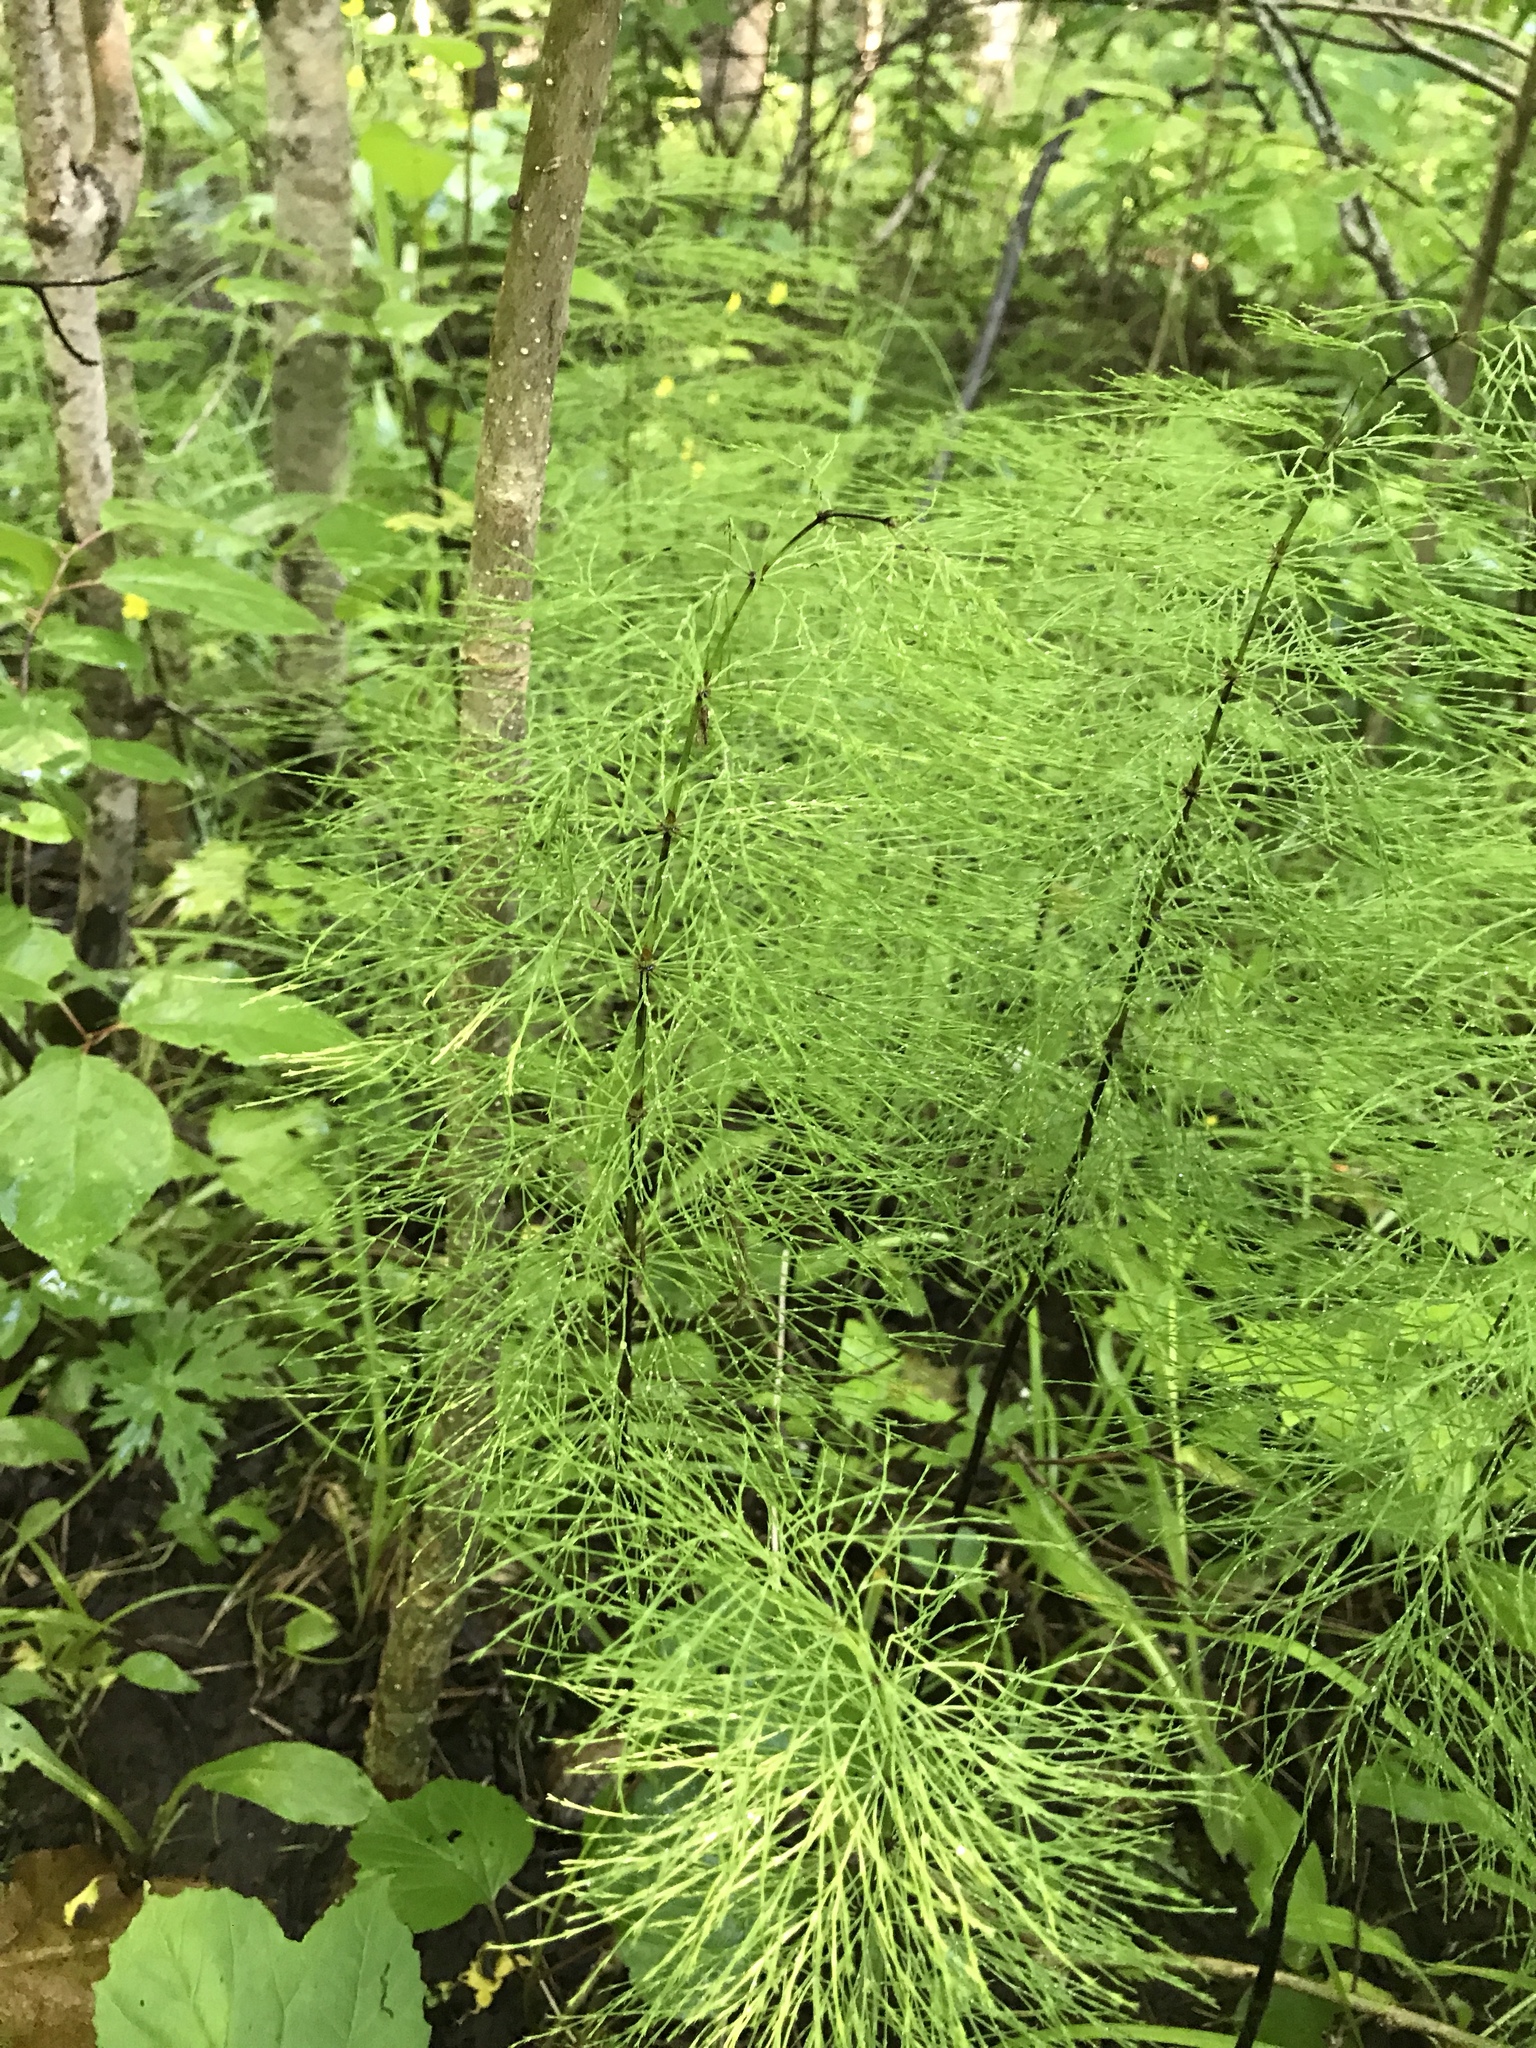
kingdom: Plantae
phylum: Tracheophyta
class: Polypodiopsida
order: Equisetales
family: Equisetaceae
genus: Equisetum
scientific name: Equisetum sylvaticum
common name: Wood horsetail
